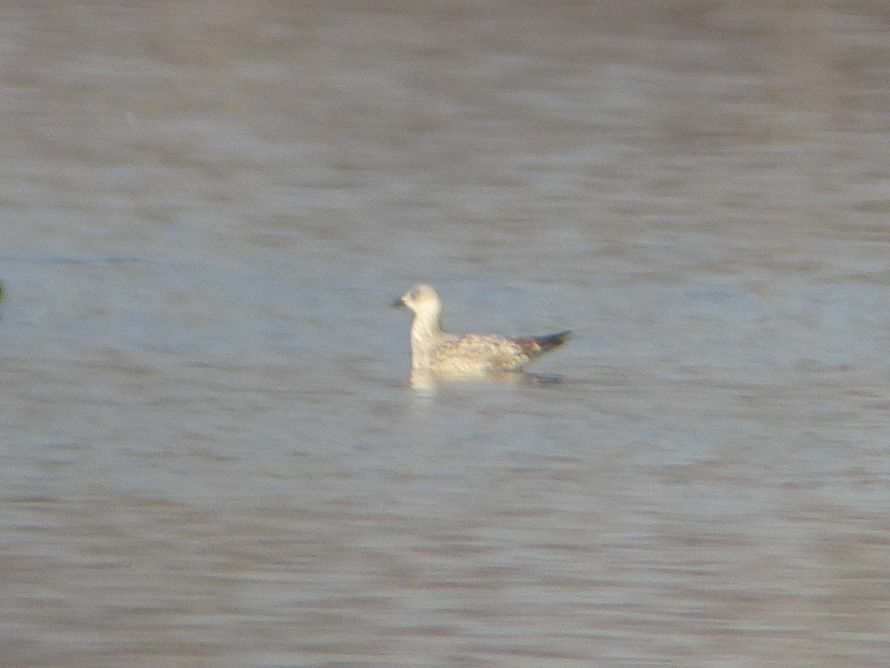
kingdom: Animalia
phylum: Chordata
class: Aves
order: Charadriiformes
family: Laridae
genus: Larus
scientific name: Larus michahellis
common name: Yellow-legged gull
